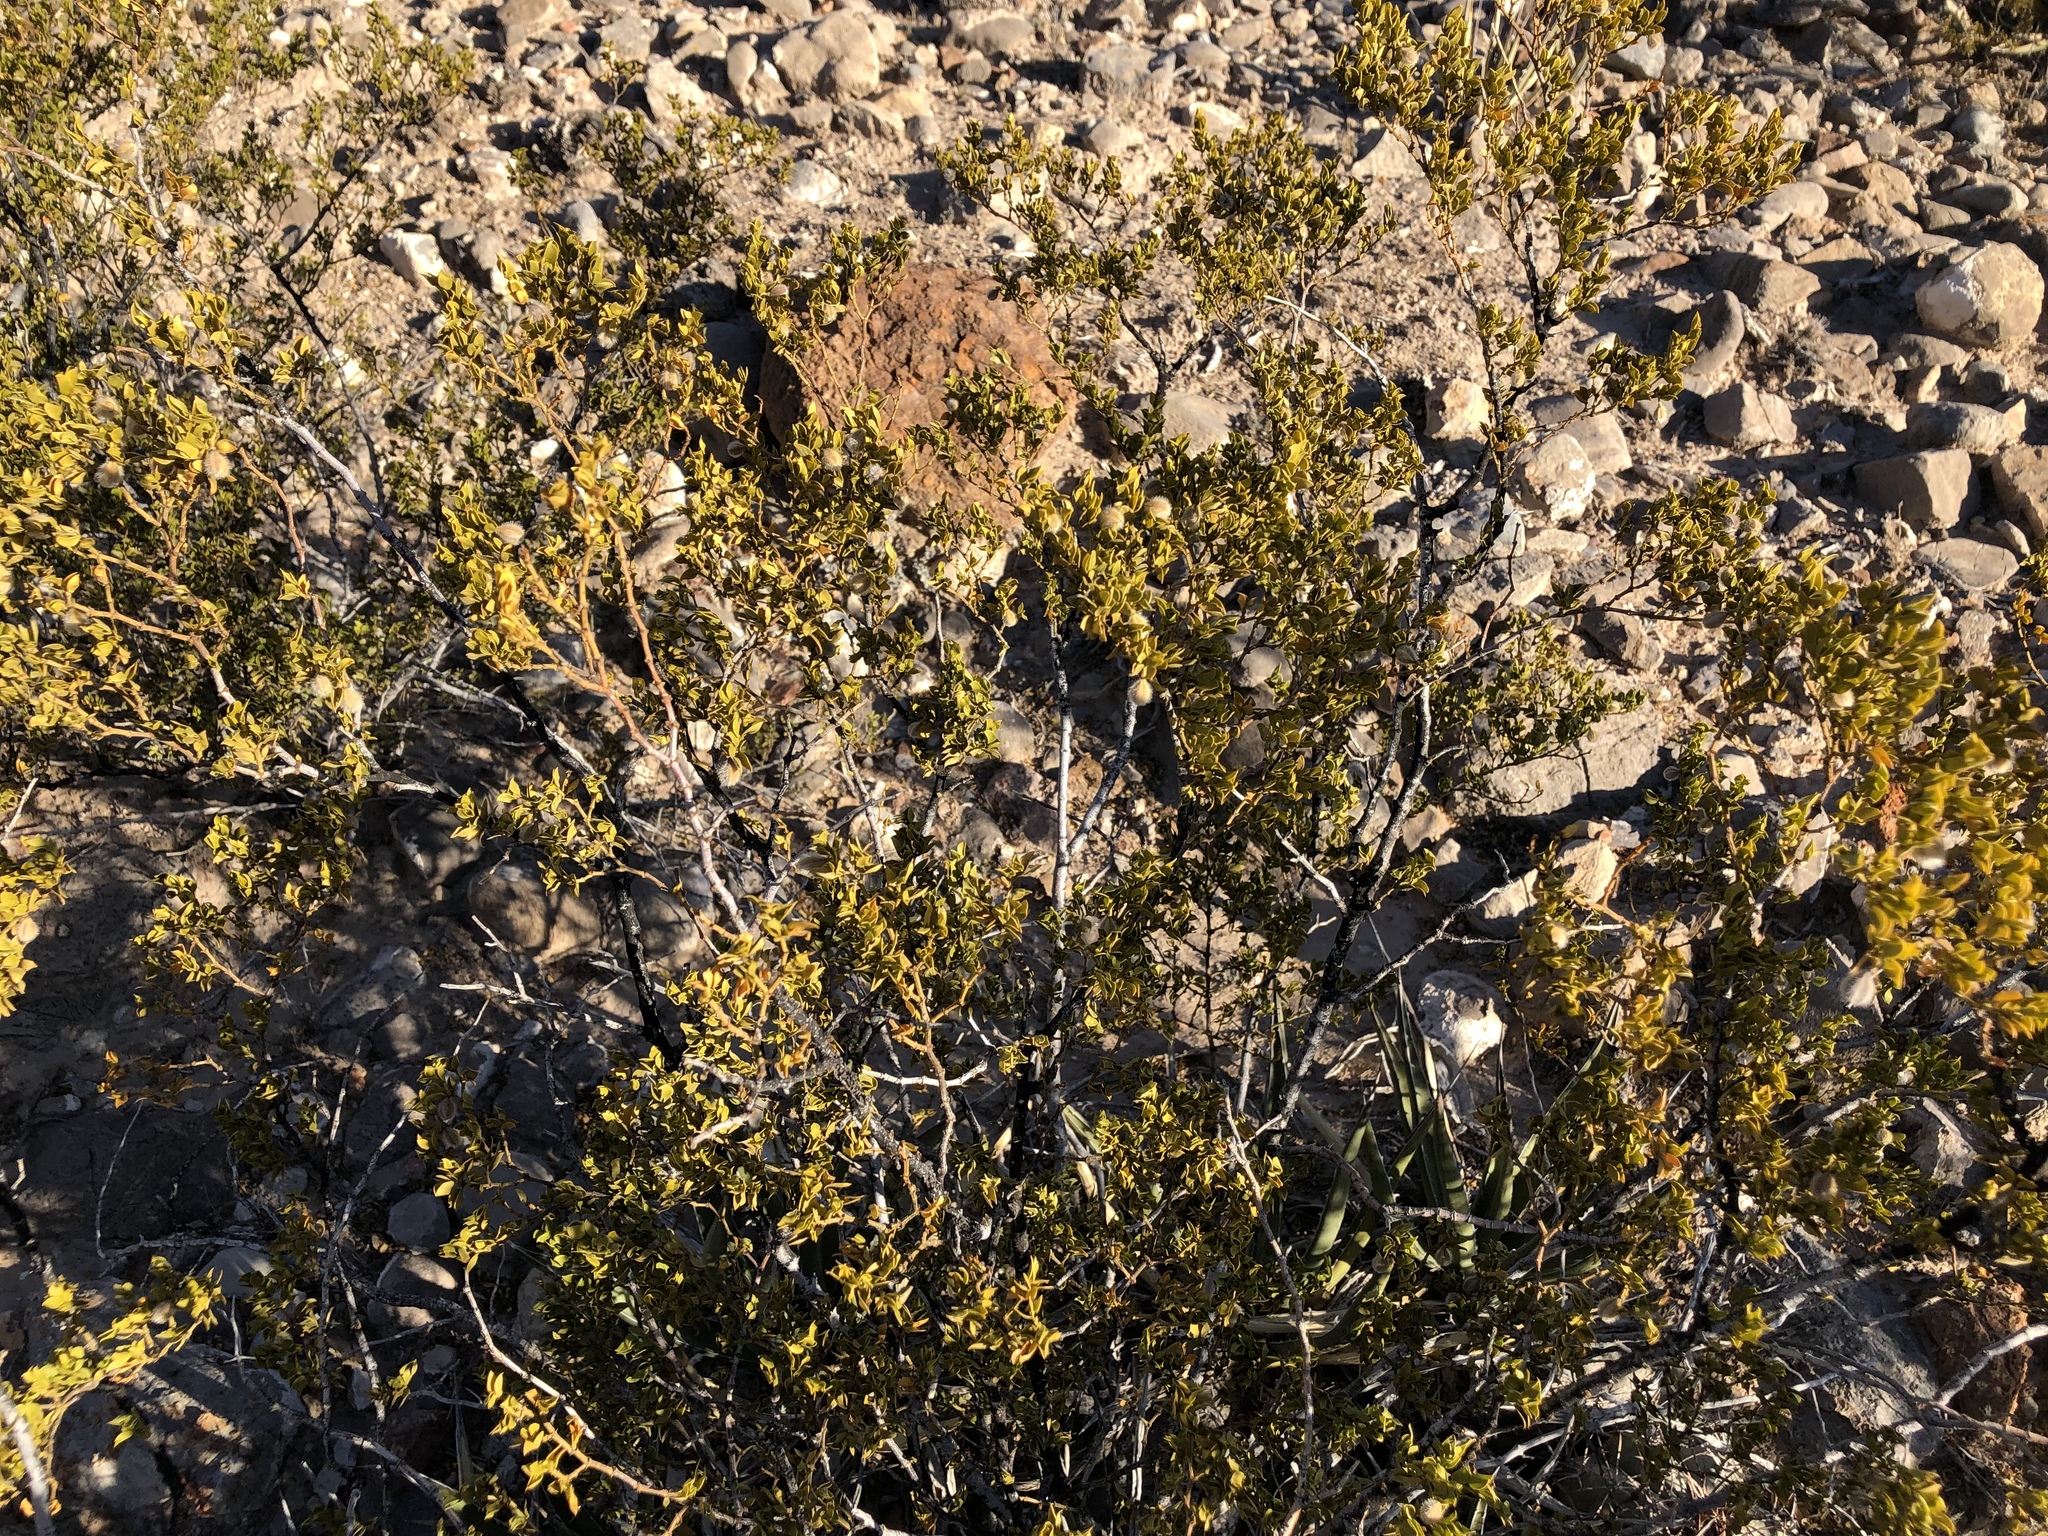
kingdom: Plantae
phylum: Tracheophyta
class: Magnoliopsida
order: Zygophyllales
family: Zygophyllaceae
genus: Larrea
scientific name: Larrea tridentata
